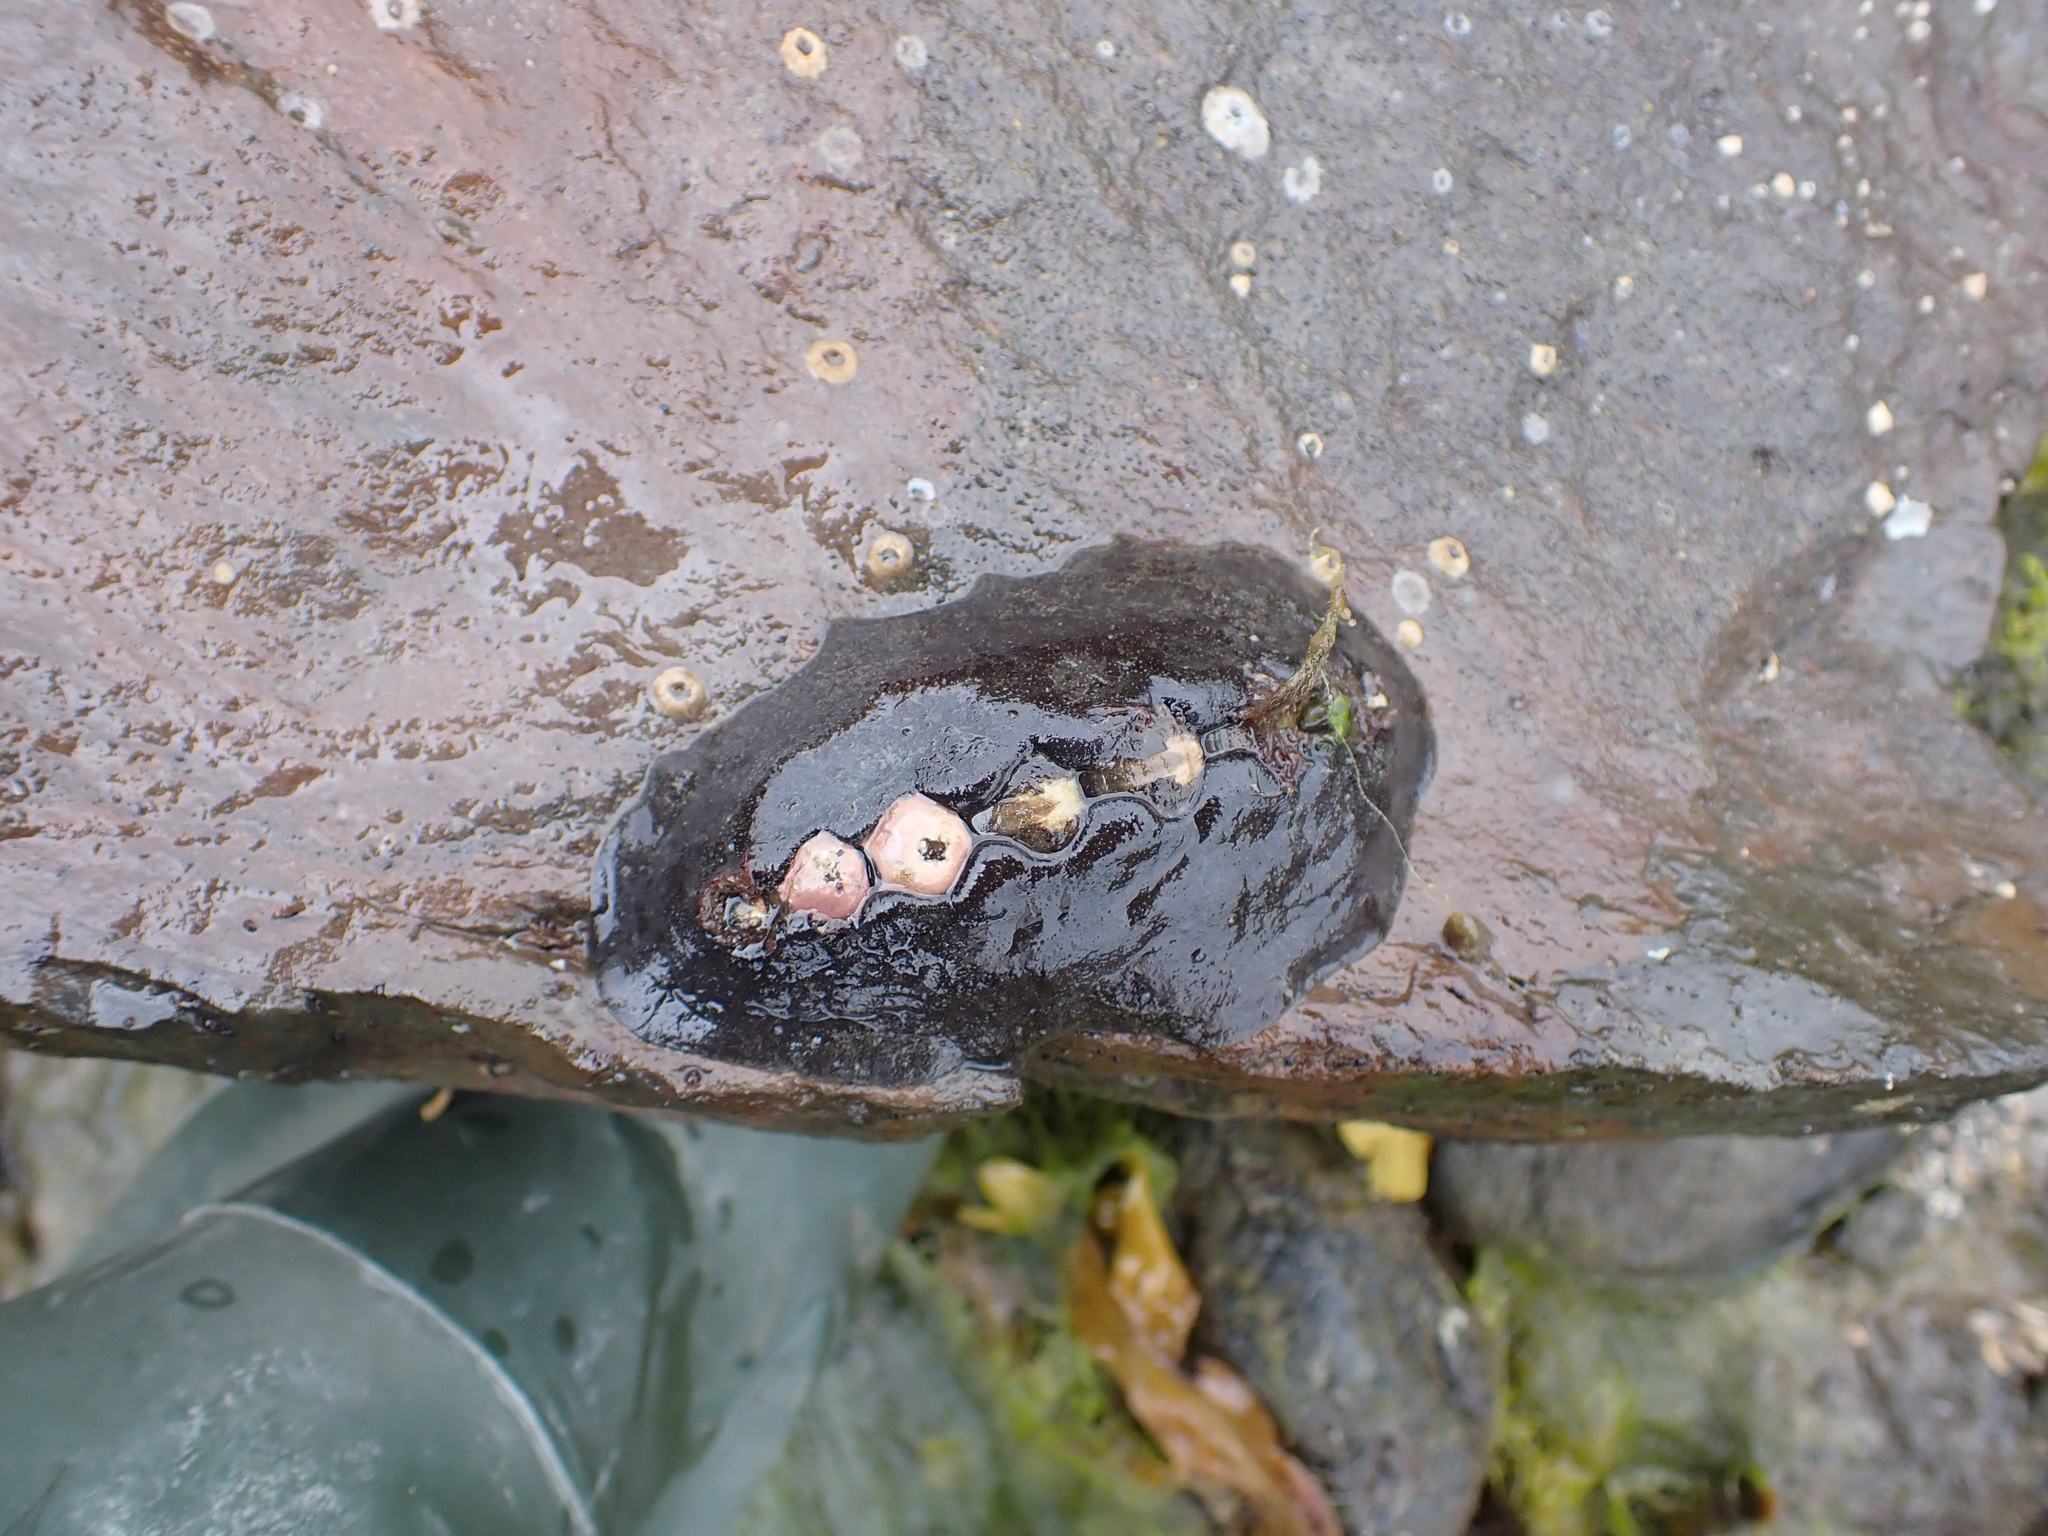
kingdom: Animalia
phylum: Mollusca
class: Polyplacophora
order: Chitonida
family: Mopaliidae
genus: Katharina
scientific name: Katharina tunicata
